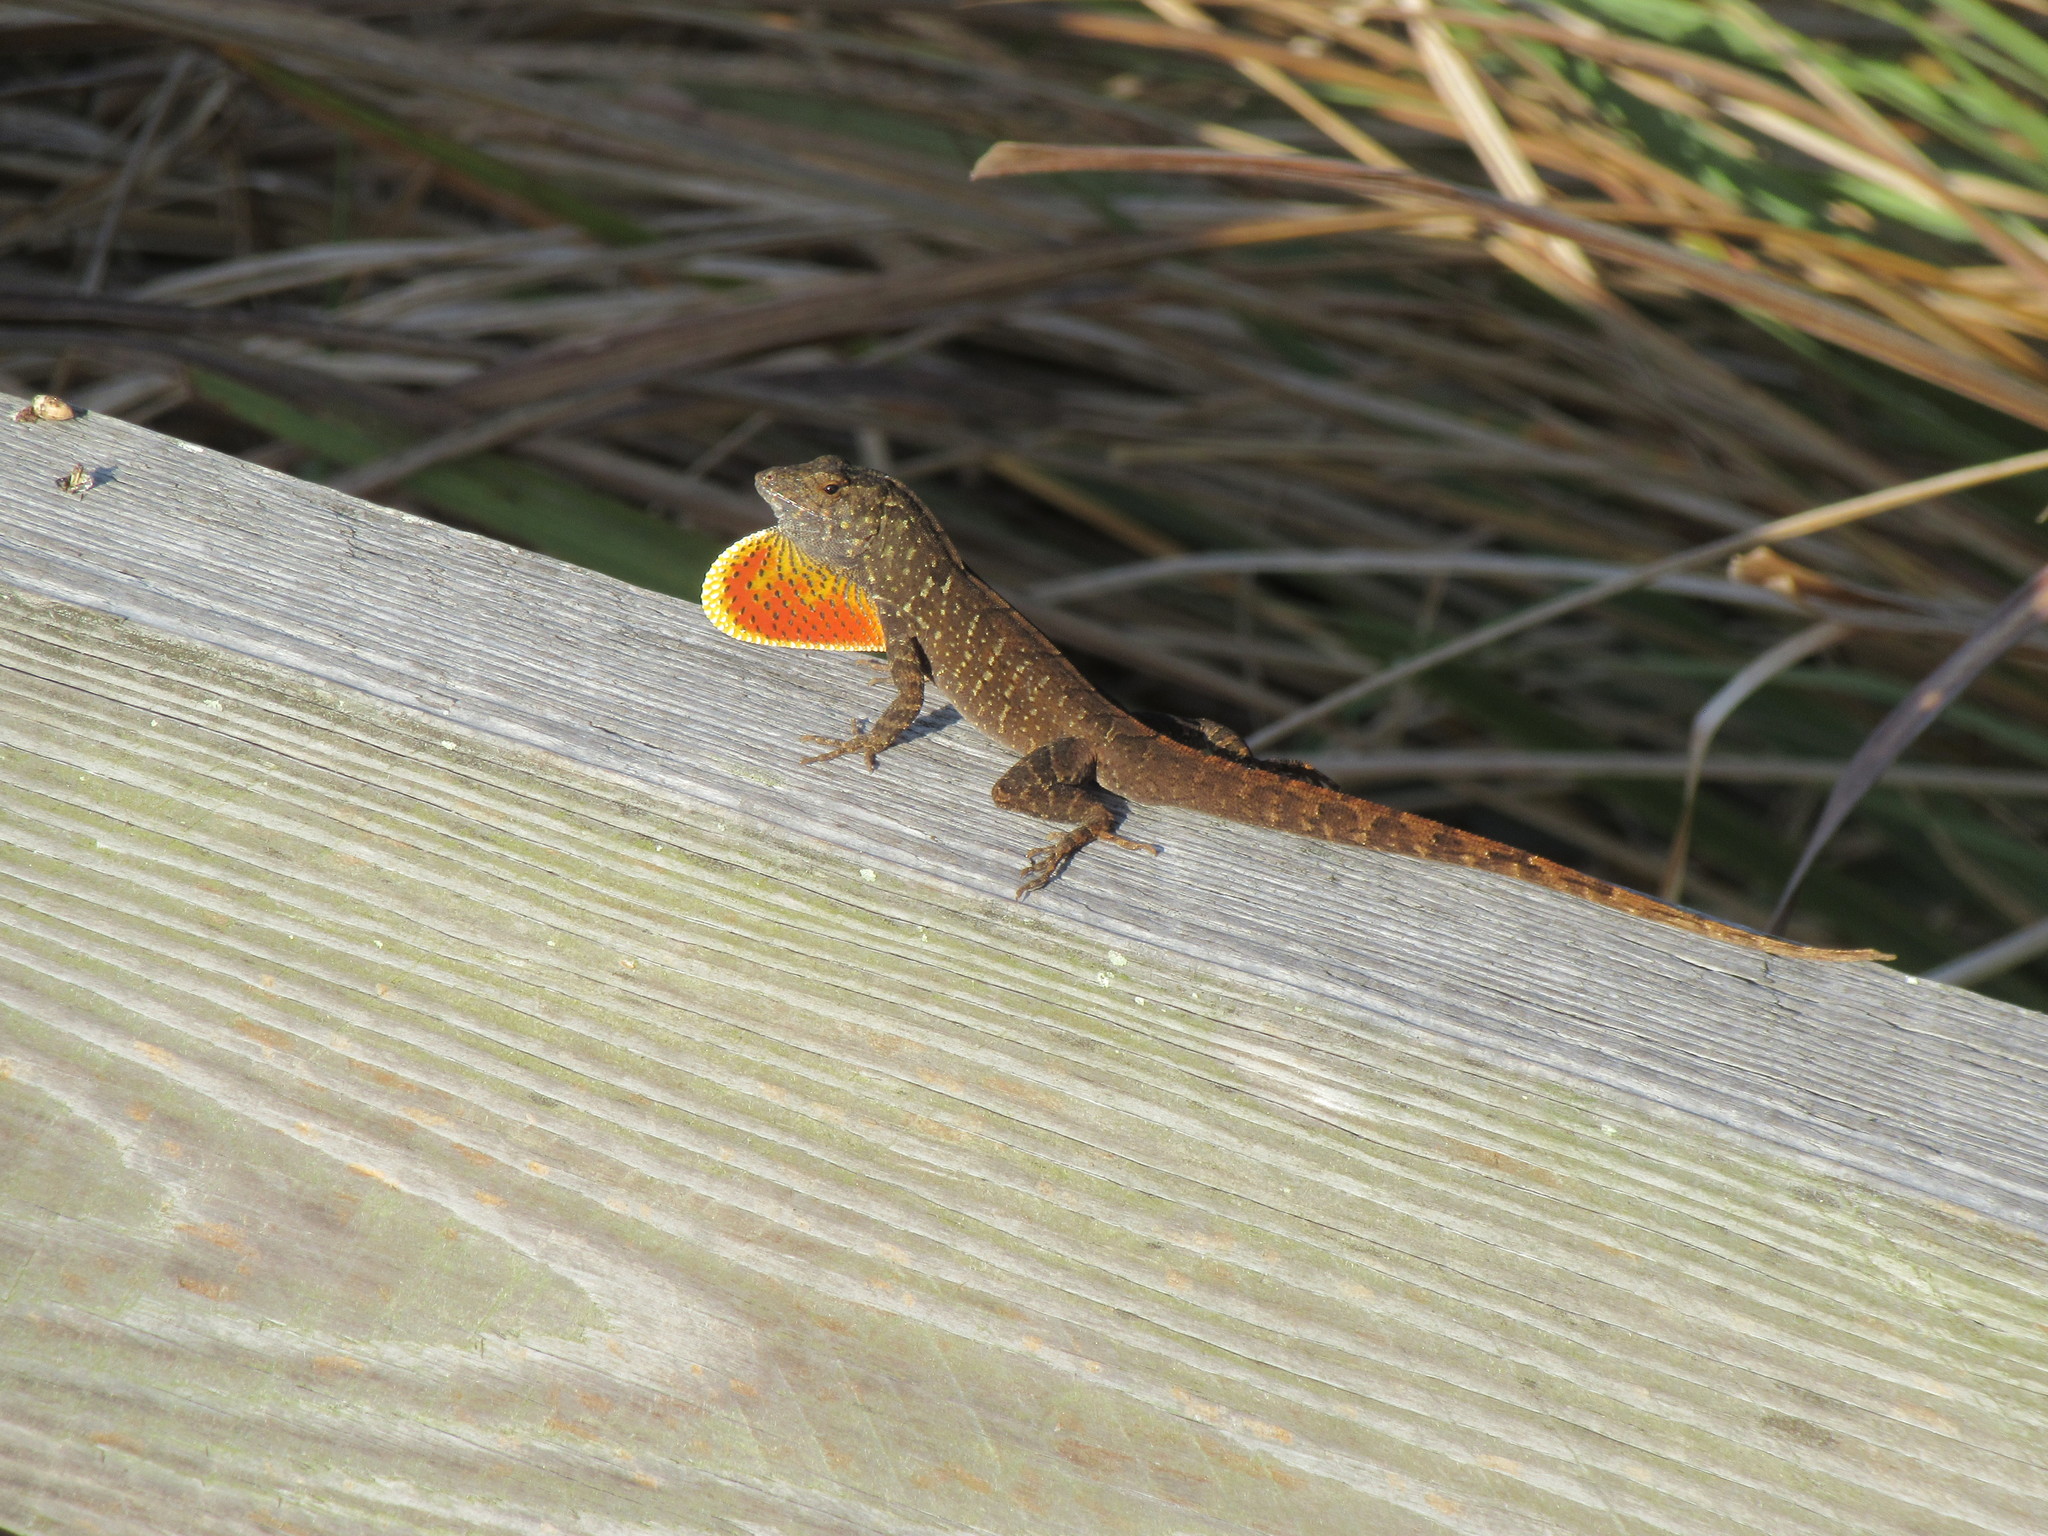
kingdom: Animalia
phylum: Chordata
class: Squamata
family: Dactyloidae
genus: Anolis
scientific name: Anolis sagrei
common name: Brown anole
